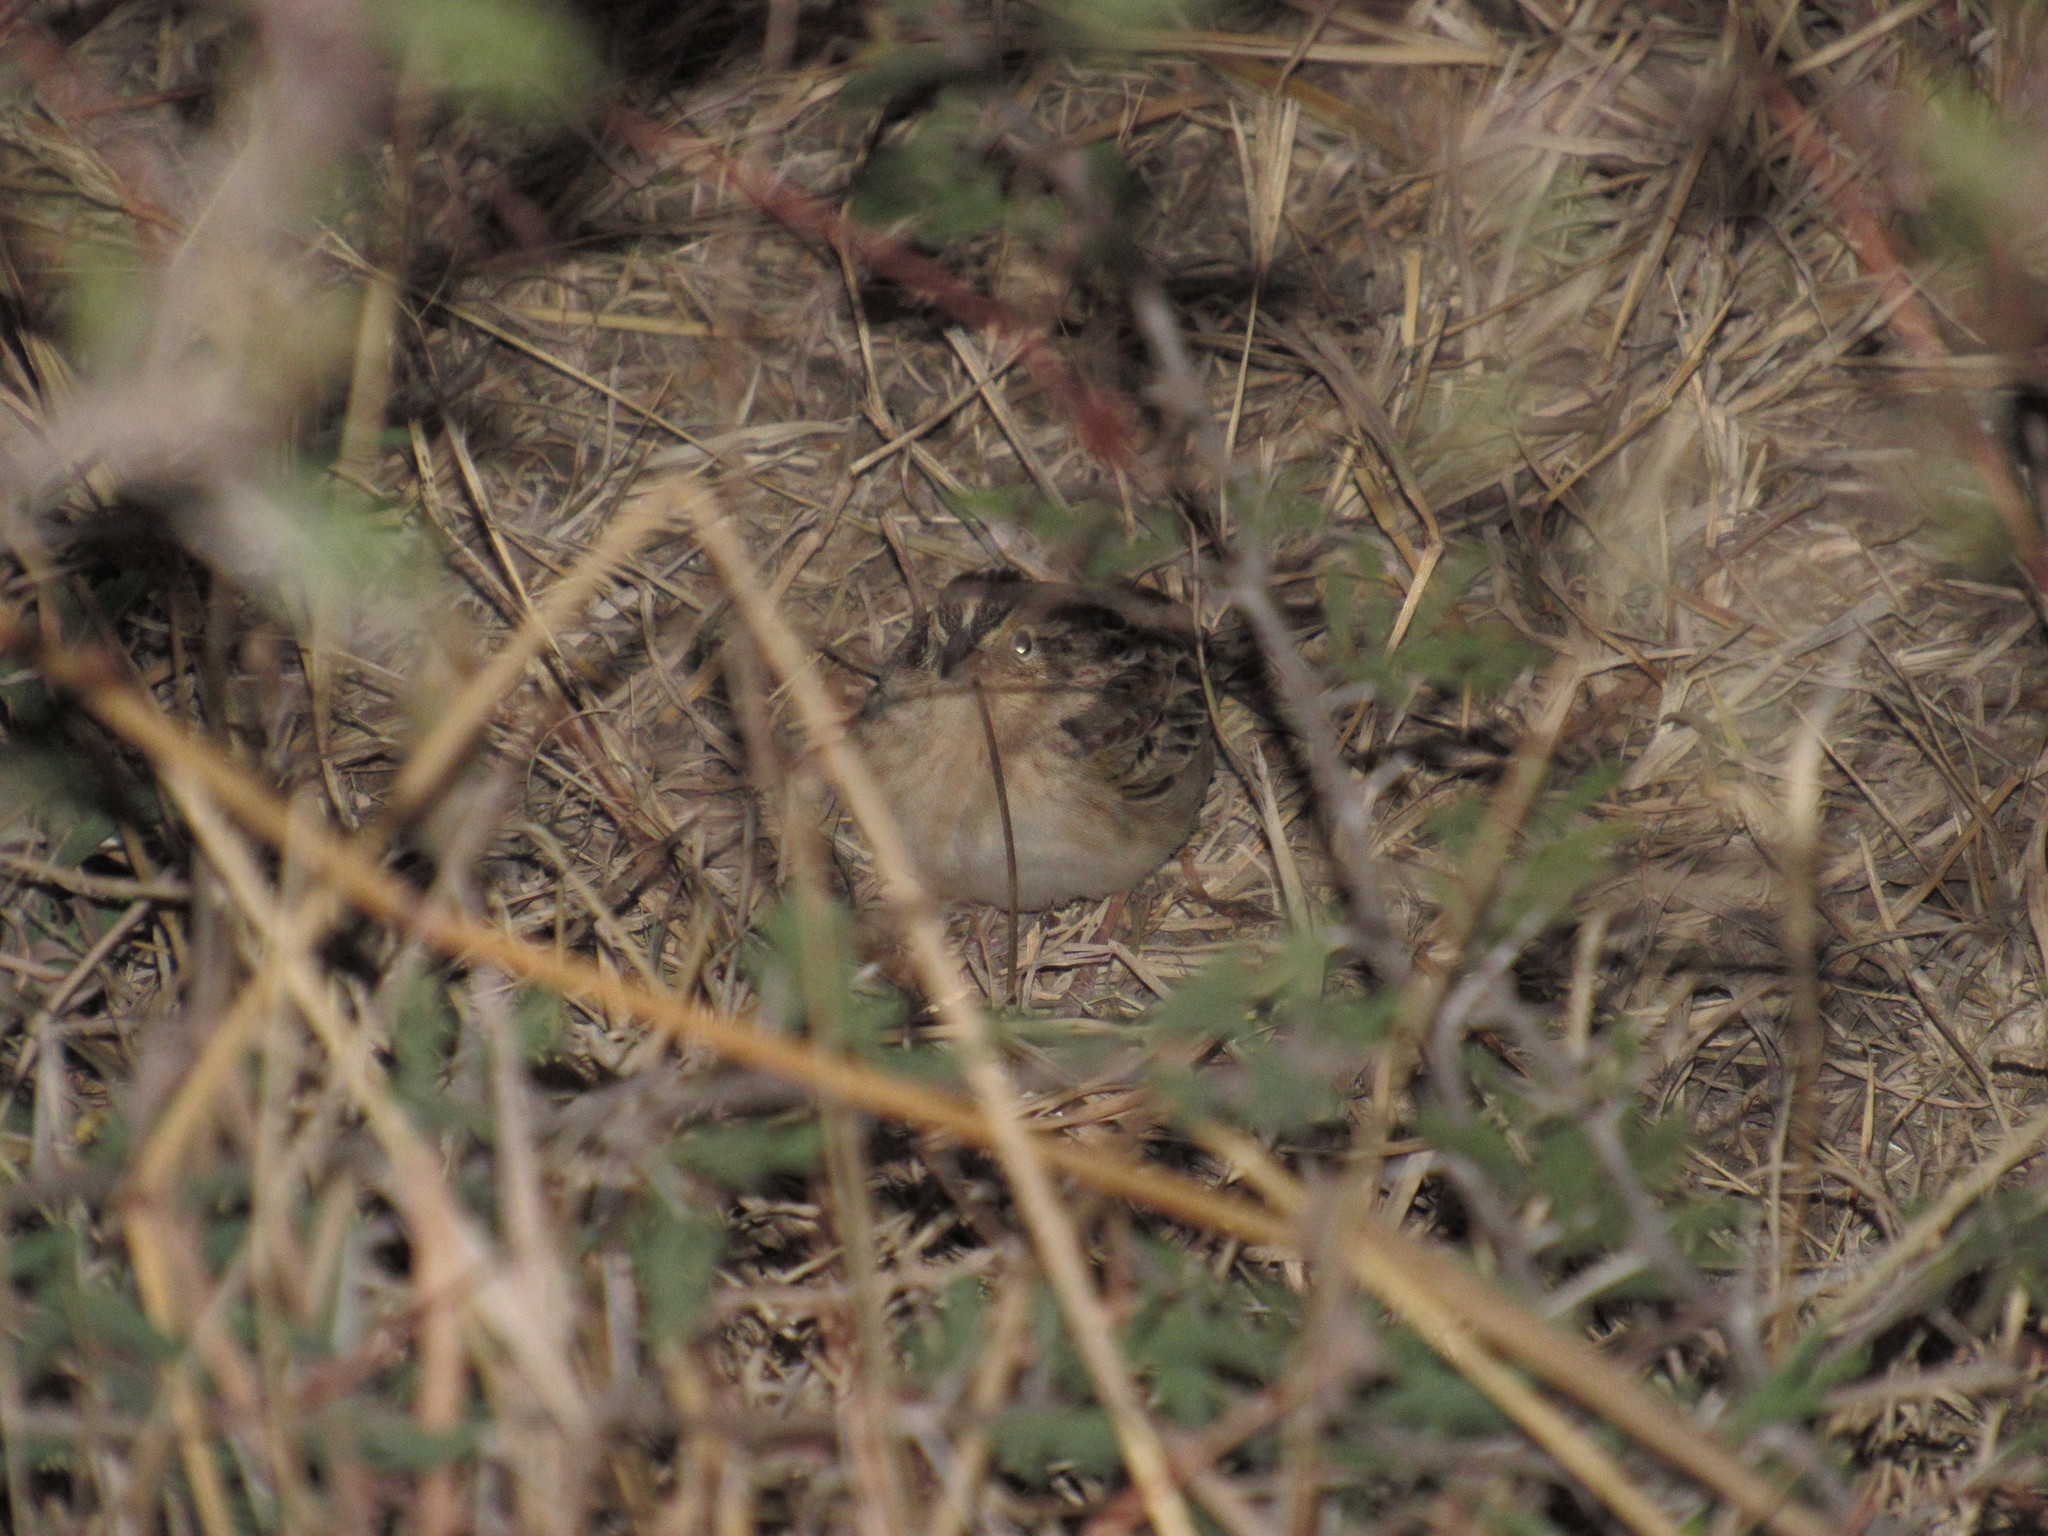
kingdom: Animalia
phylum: Chordata
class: Aves
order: Passeriformes
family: Passerellidae
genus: Spizella
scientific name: Spizella pallida
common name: Clay-colored sparrow
